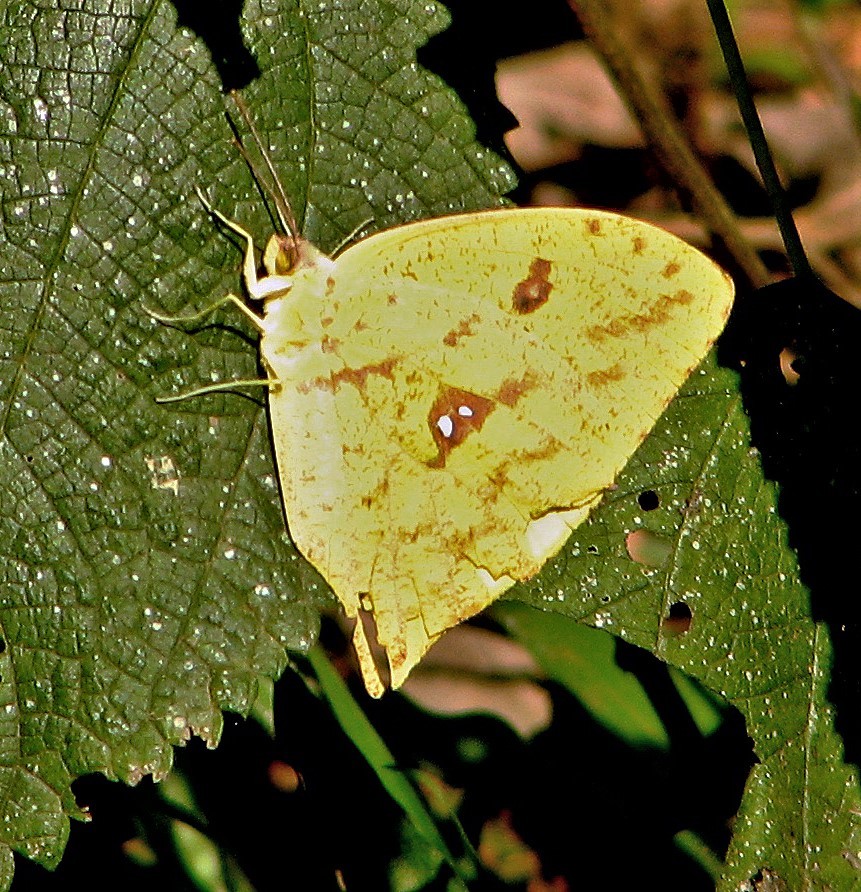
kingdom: Animalia
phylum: Arthropoda
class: Insecta
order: Lepidoptera
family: Pieridae
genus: Phoebis
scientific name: Phoebis neocypris
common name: Tailed sulphur
